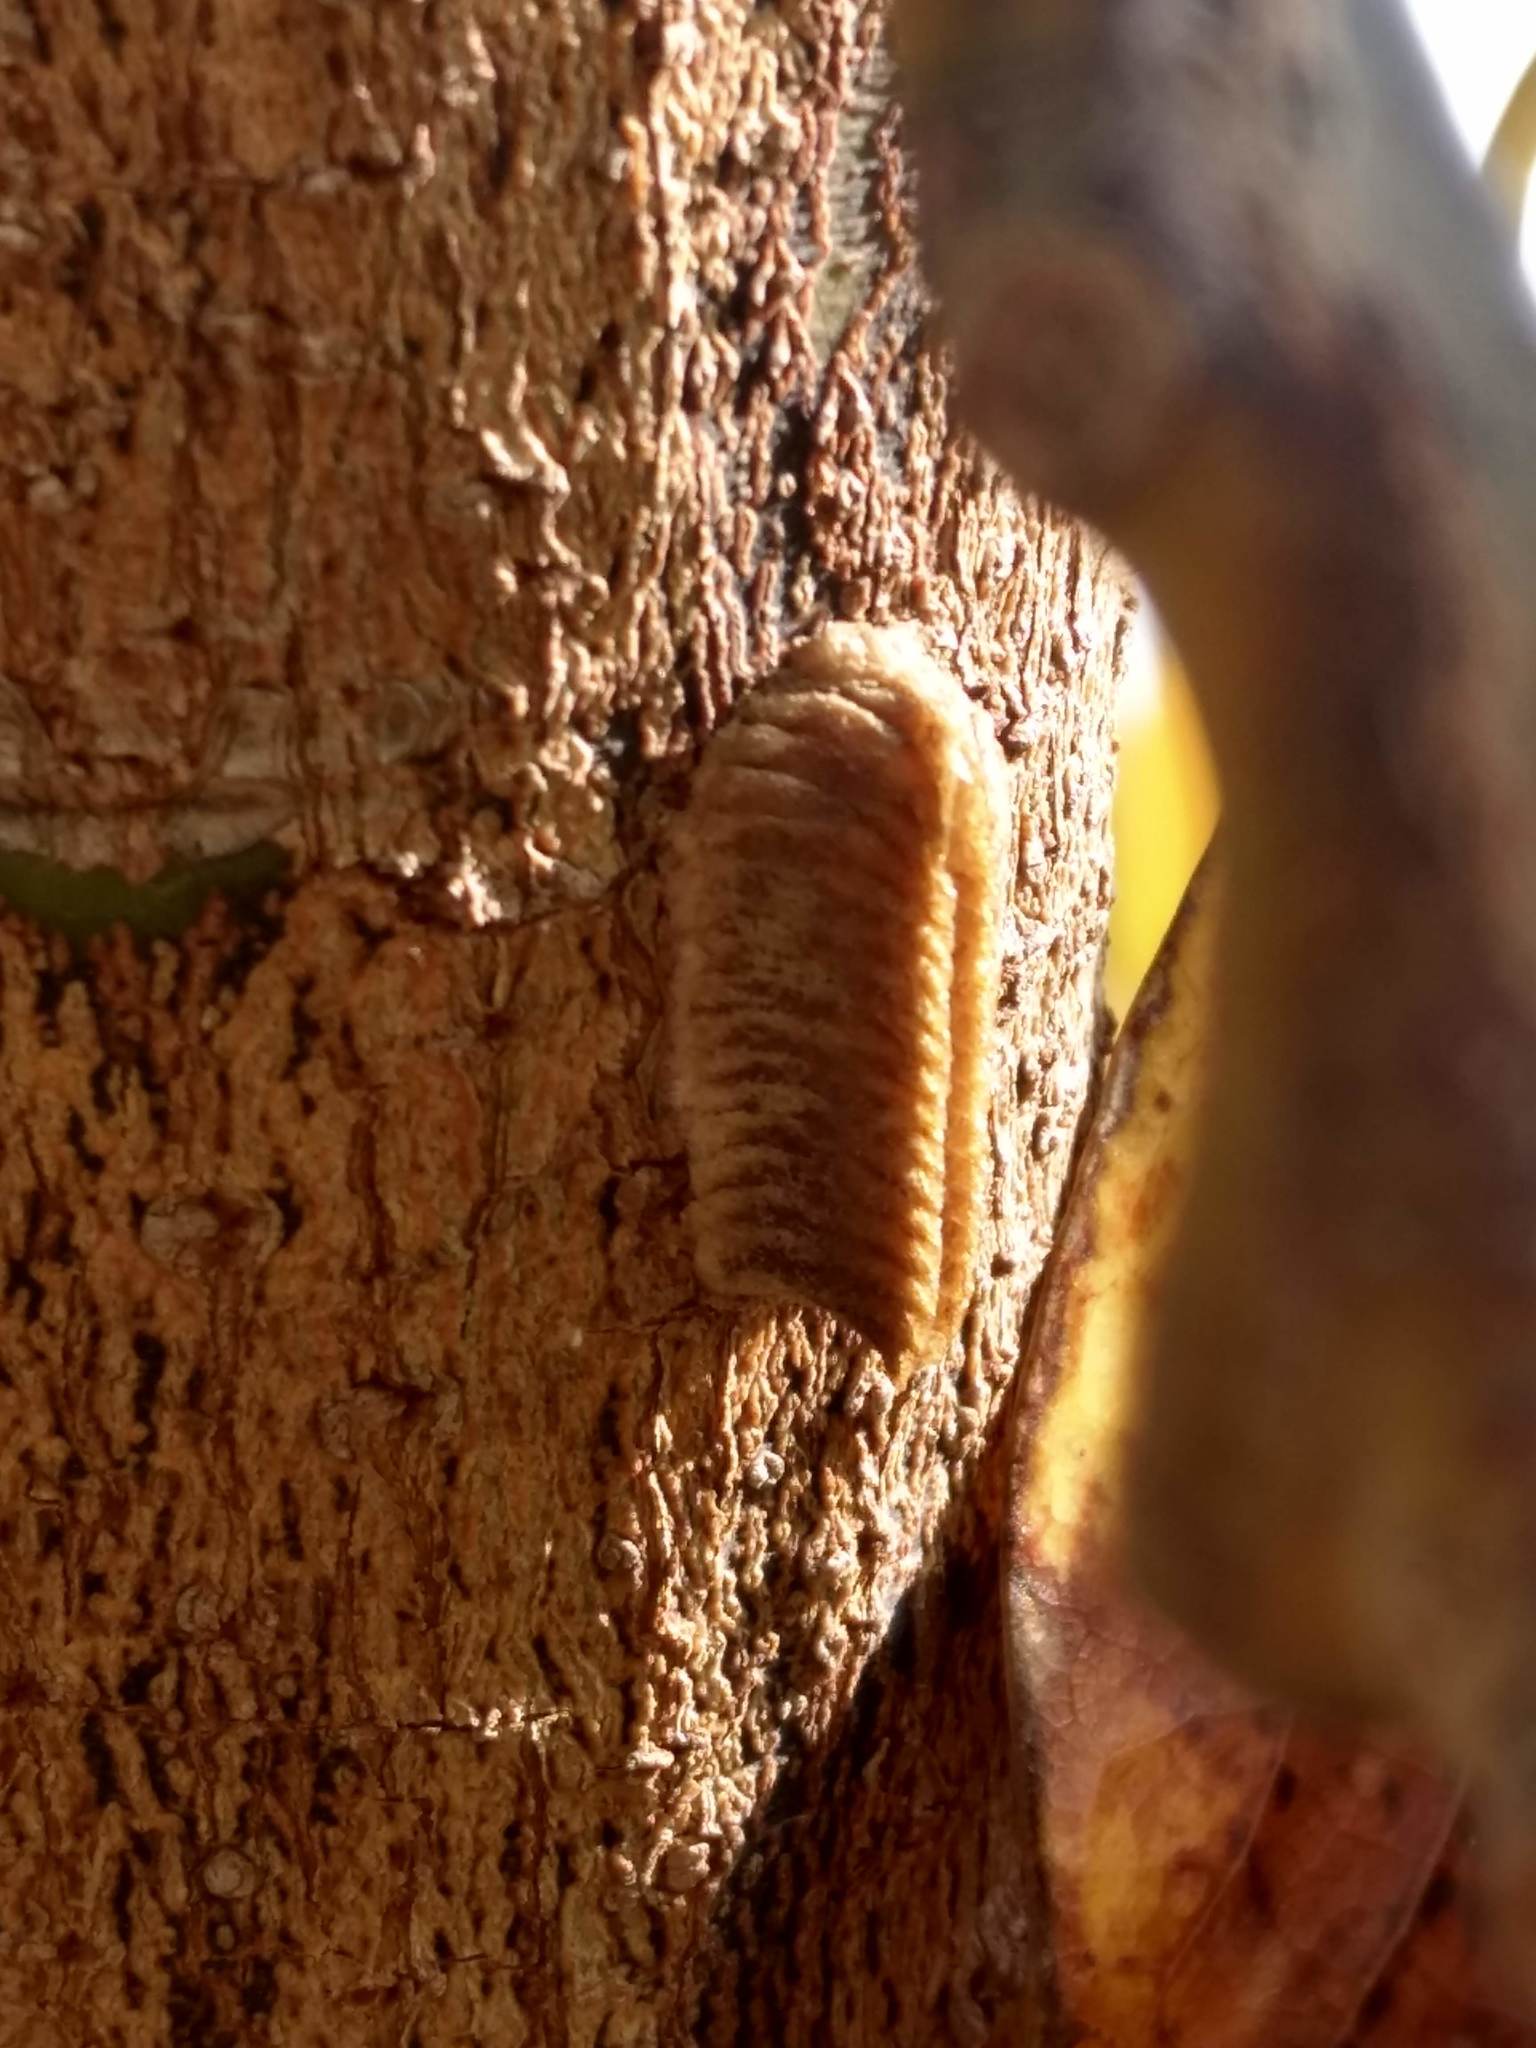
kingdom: Animalia
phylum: Arthropoda
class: Insecta
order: Mantodea
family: Eremiaphilidae
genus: Iris
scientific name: Iris oratoria
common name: Mediterranean mantis
